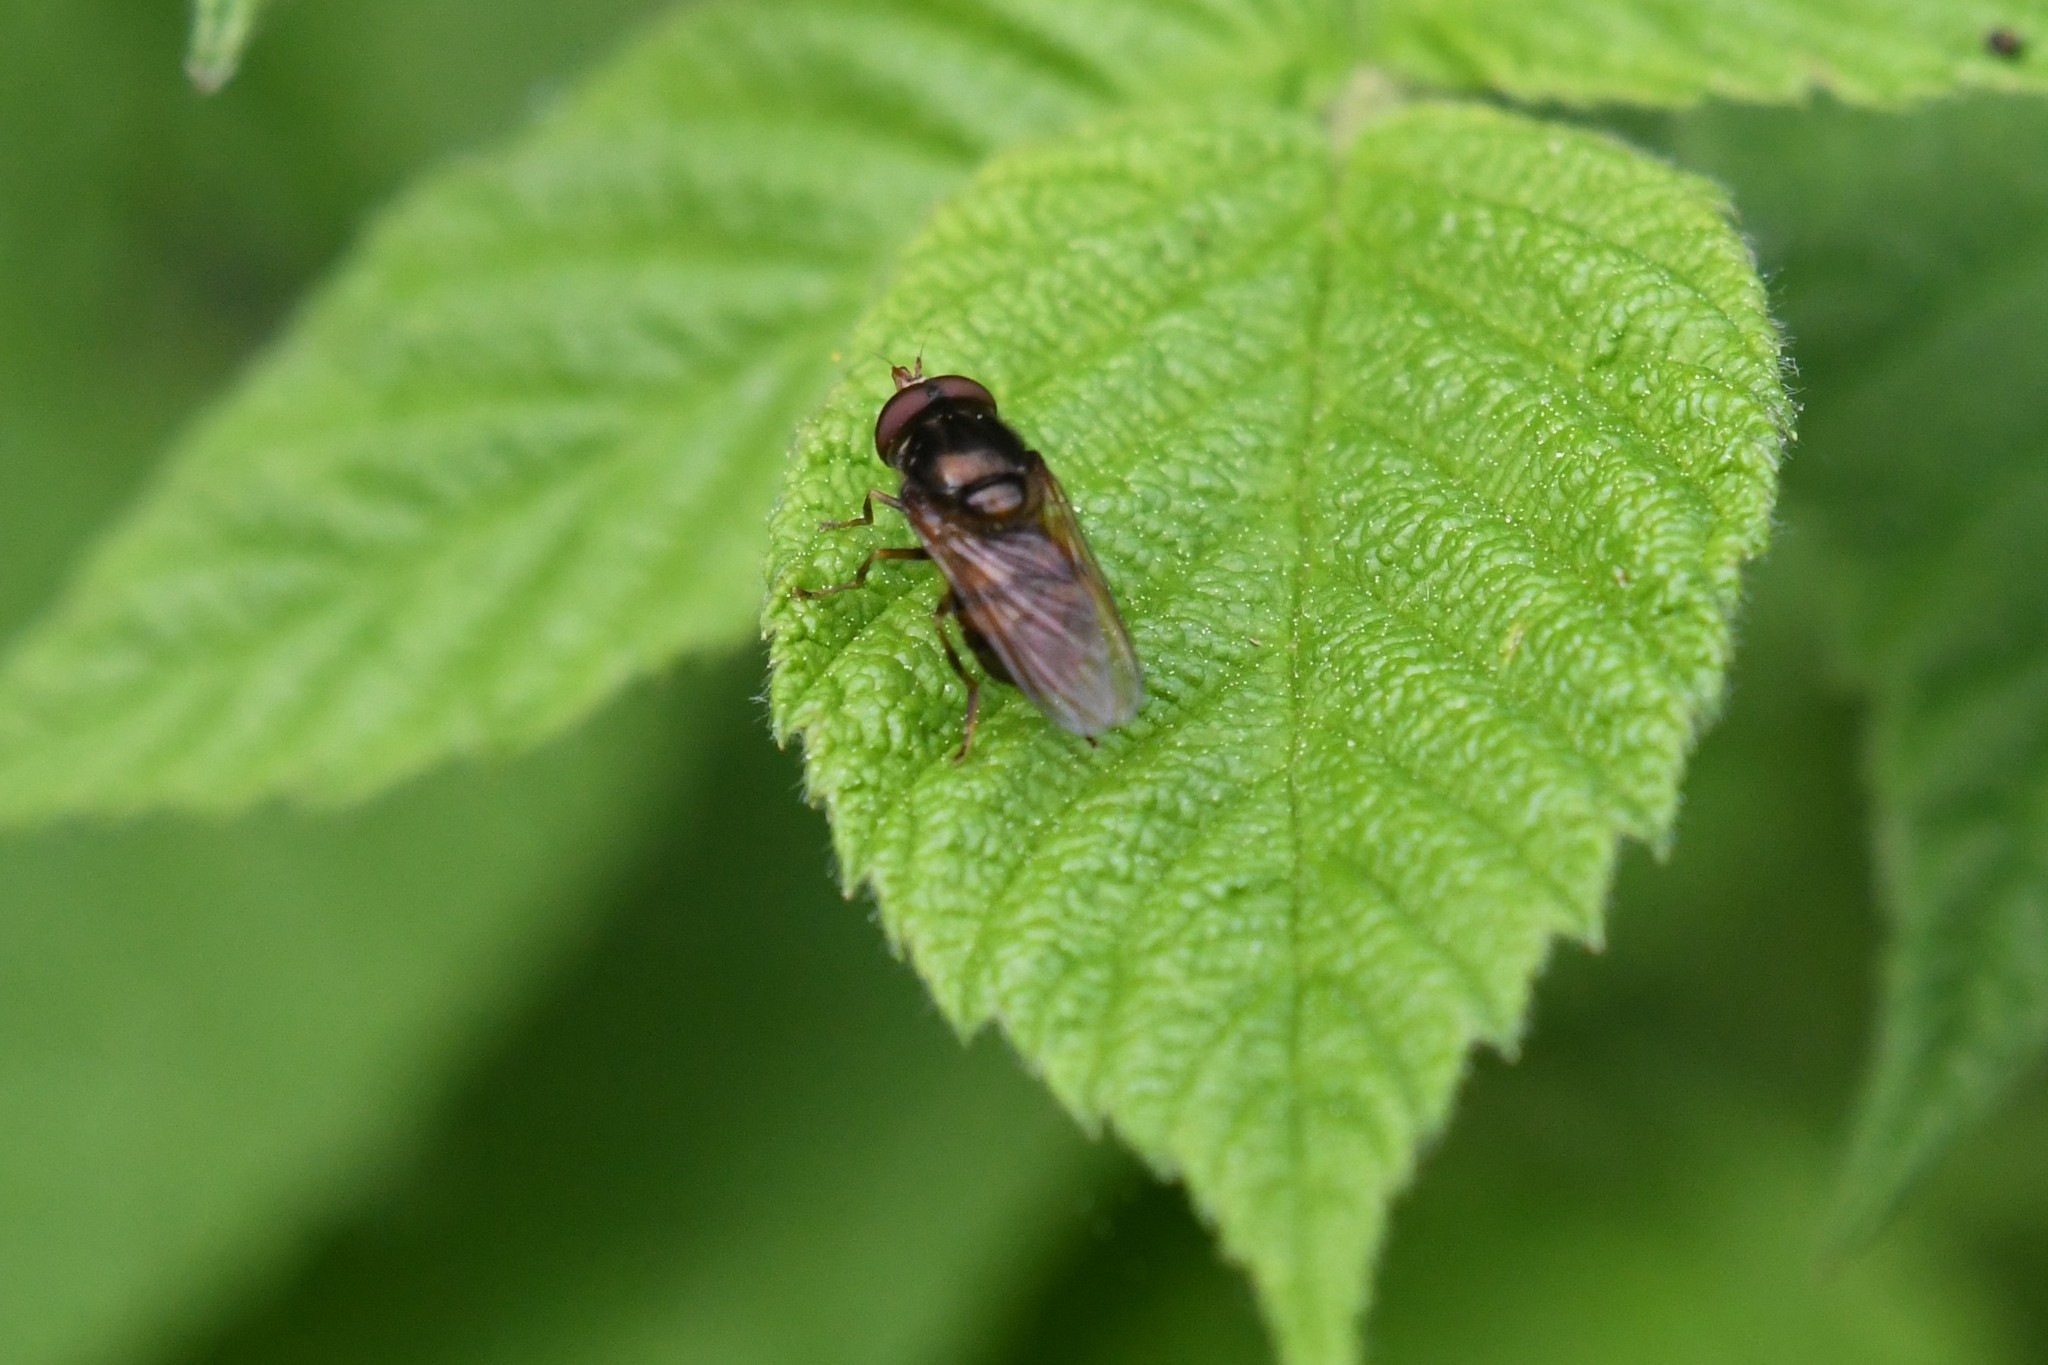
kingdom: Animalia
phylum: Arthropoda
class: Insecta
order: Diptera
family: Syrphidae
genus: Rhingia
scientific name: Rhingia nasica
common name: American snout fly
